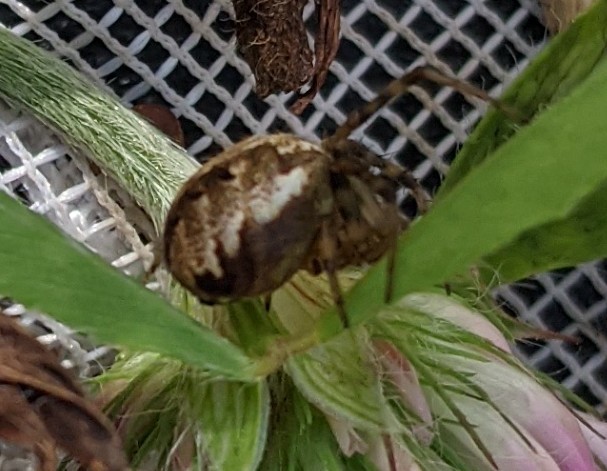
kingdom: Animalia
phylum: Arthropoda
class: Arachnida
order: Araneae
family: Araneidae
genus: Neoscona
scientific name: Neoscona arabesca
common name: Orb weavers
